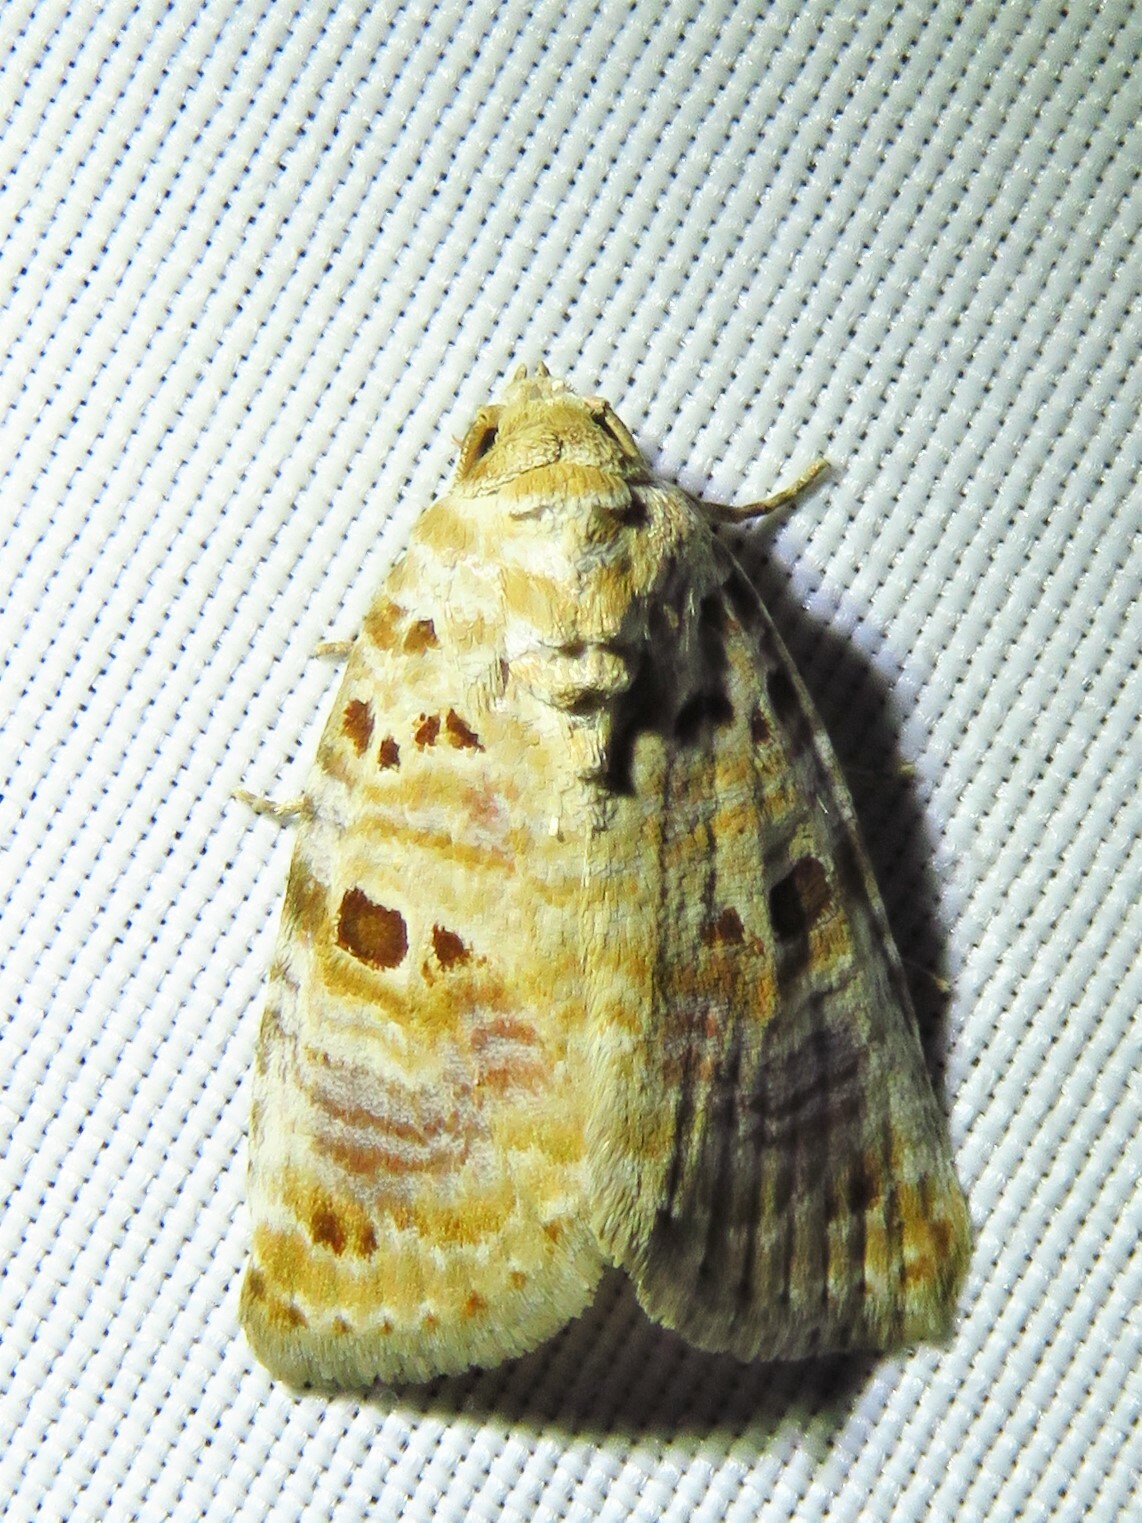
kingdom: Animalia
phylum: Arthropoda
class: Insecta
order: Lepidoptera
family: Noctuidae
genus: Diastema
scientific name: Diastema tigris
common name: Lantana moth
